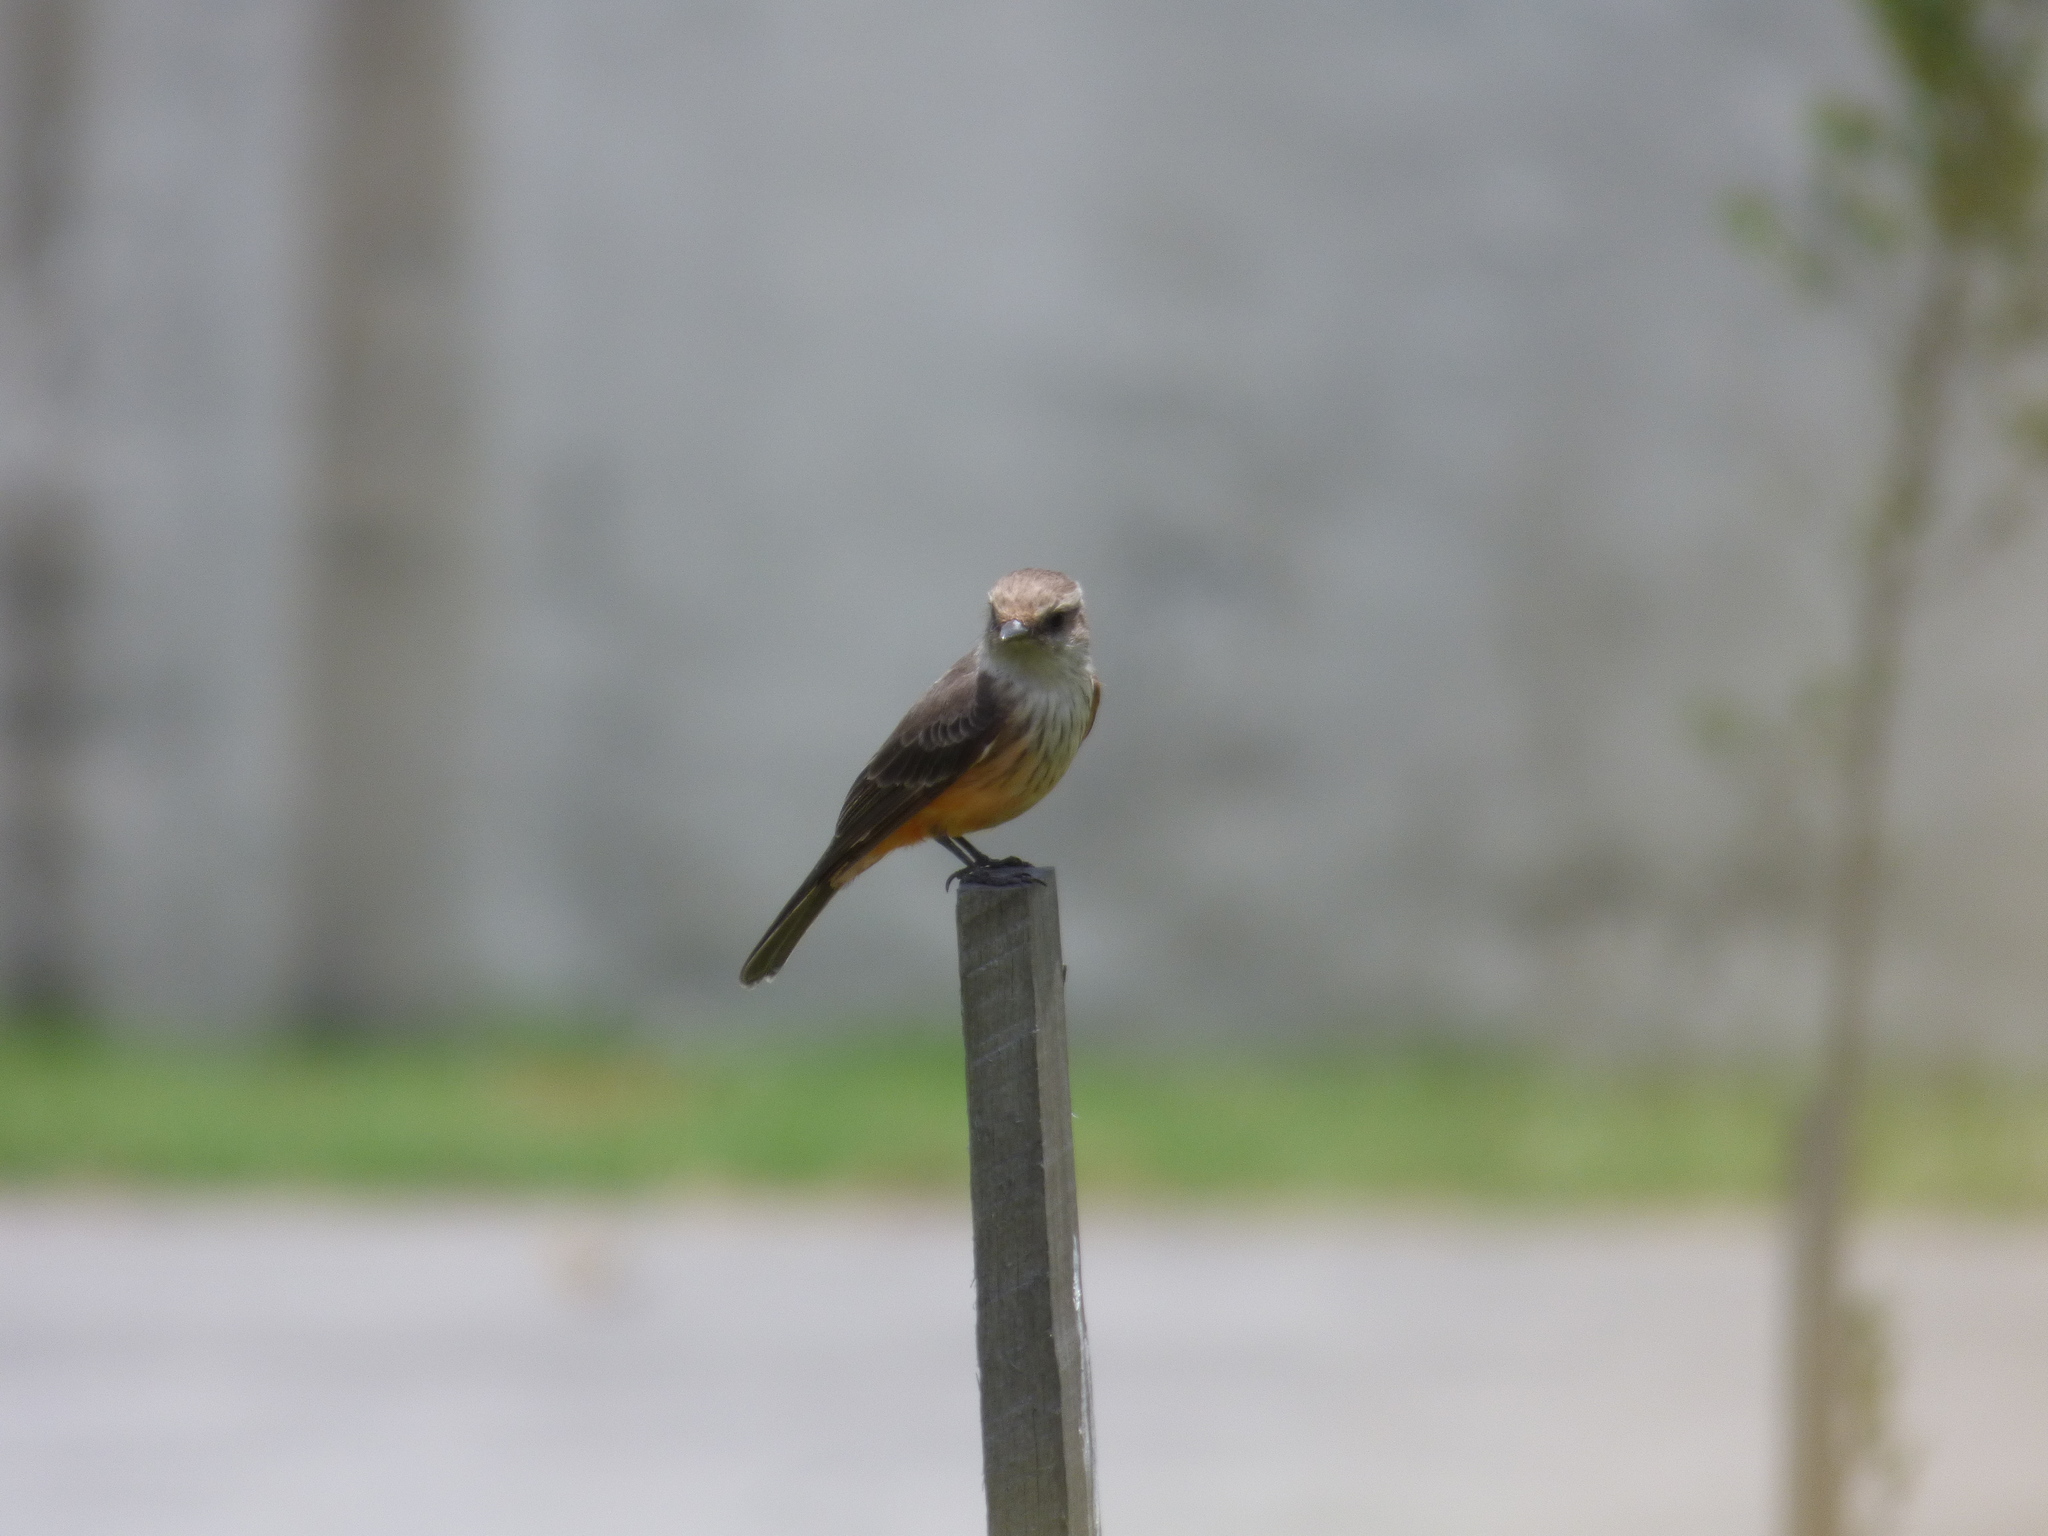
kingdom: Animalia
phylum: Chordata
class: Aves
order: Passeriformes
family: Tyrannidae
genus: Pyrocephalus
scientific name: Pyrocephalus rubinus
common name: Vermilion flycatcher
